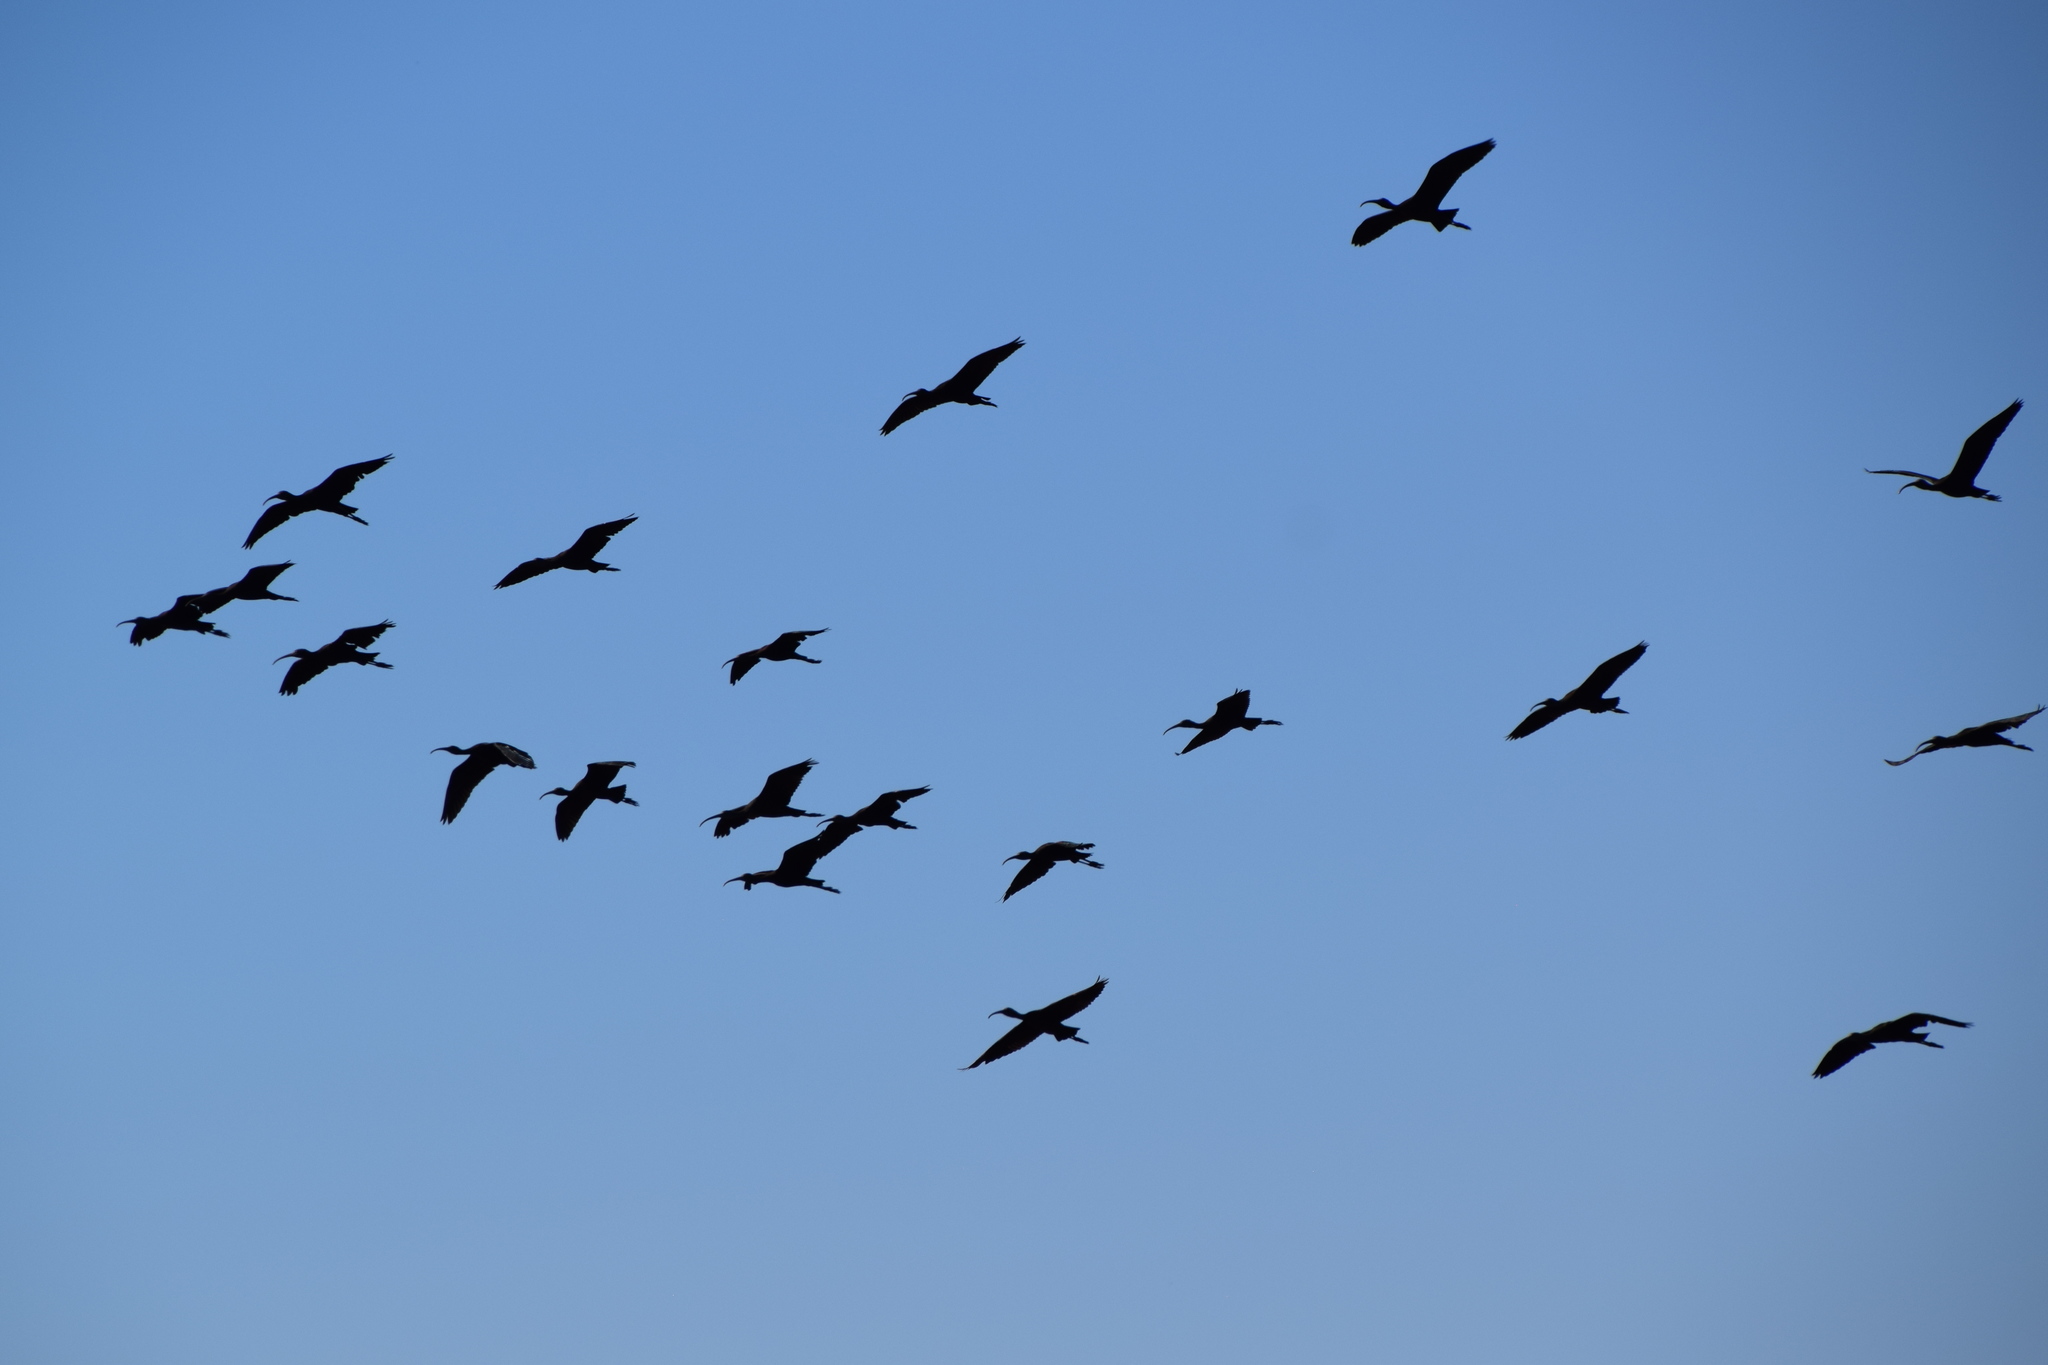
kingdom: Animalia
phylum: Chordata
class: Aves
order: Pelecaniformes
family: Threskiornithidae
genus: Plegadis
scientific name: Plegadis falcinellus
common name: Glossy ibis
